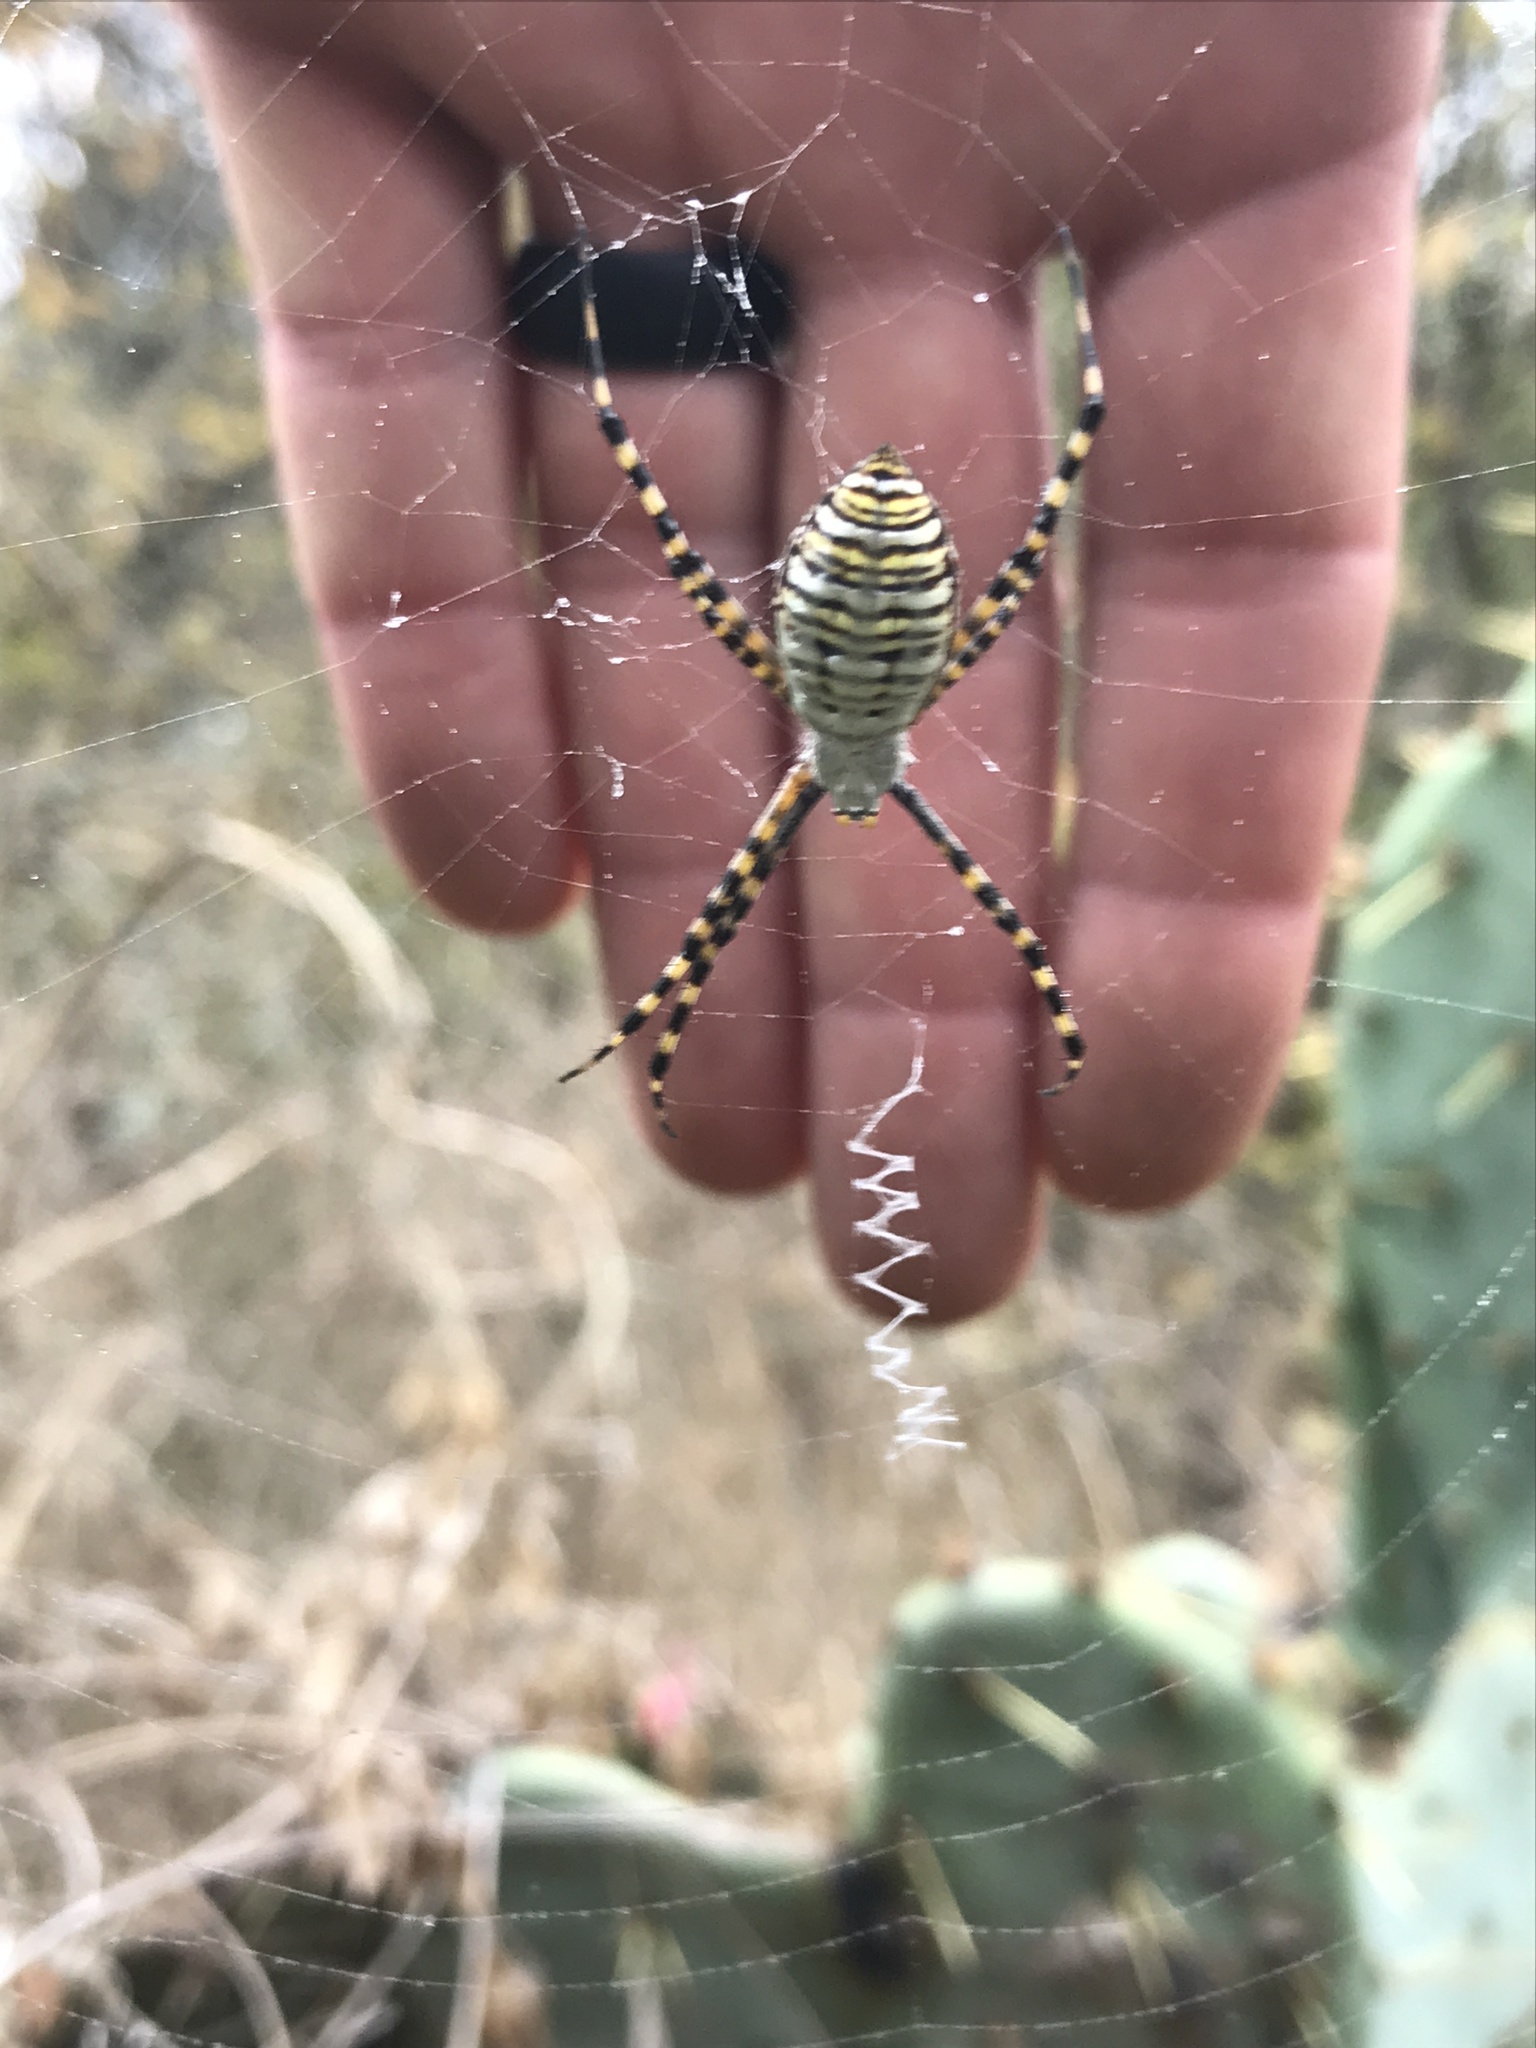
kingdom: Animalia
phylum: Arthropoda
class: Arachnida
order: Araneae
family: Araneidae
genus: Argiope
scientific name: Argiope trifasciata
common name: Banded garden spider
